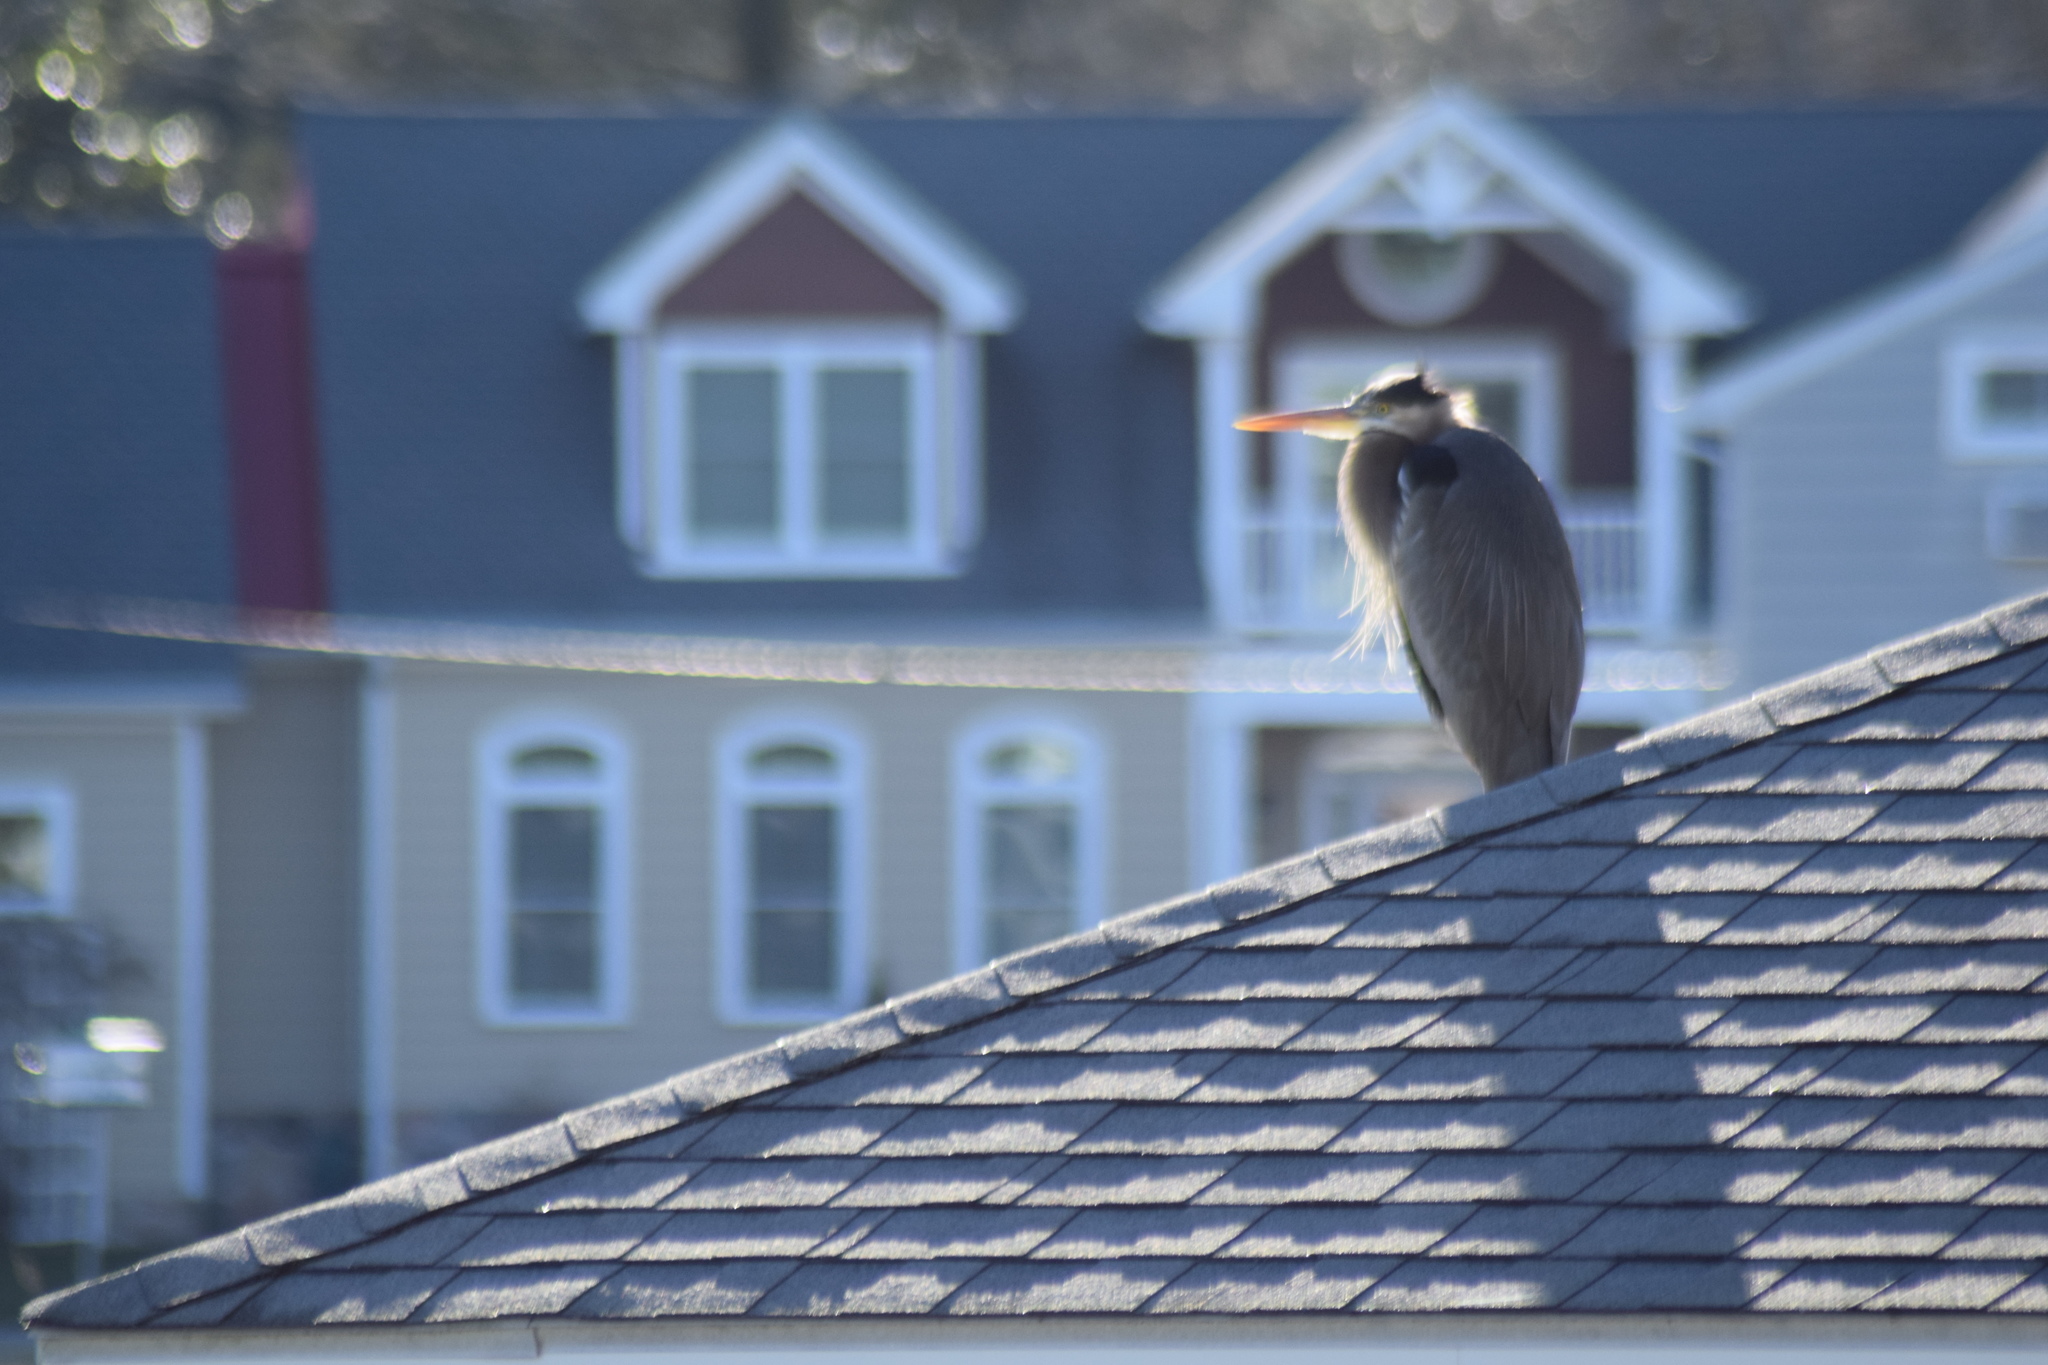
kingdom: Animalia
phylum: Chordata
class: Aves
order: Pelecaniformes
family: Ardeidae
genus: Ardea
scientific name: Ardea herodias
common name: Great blue heron
